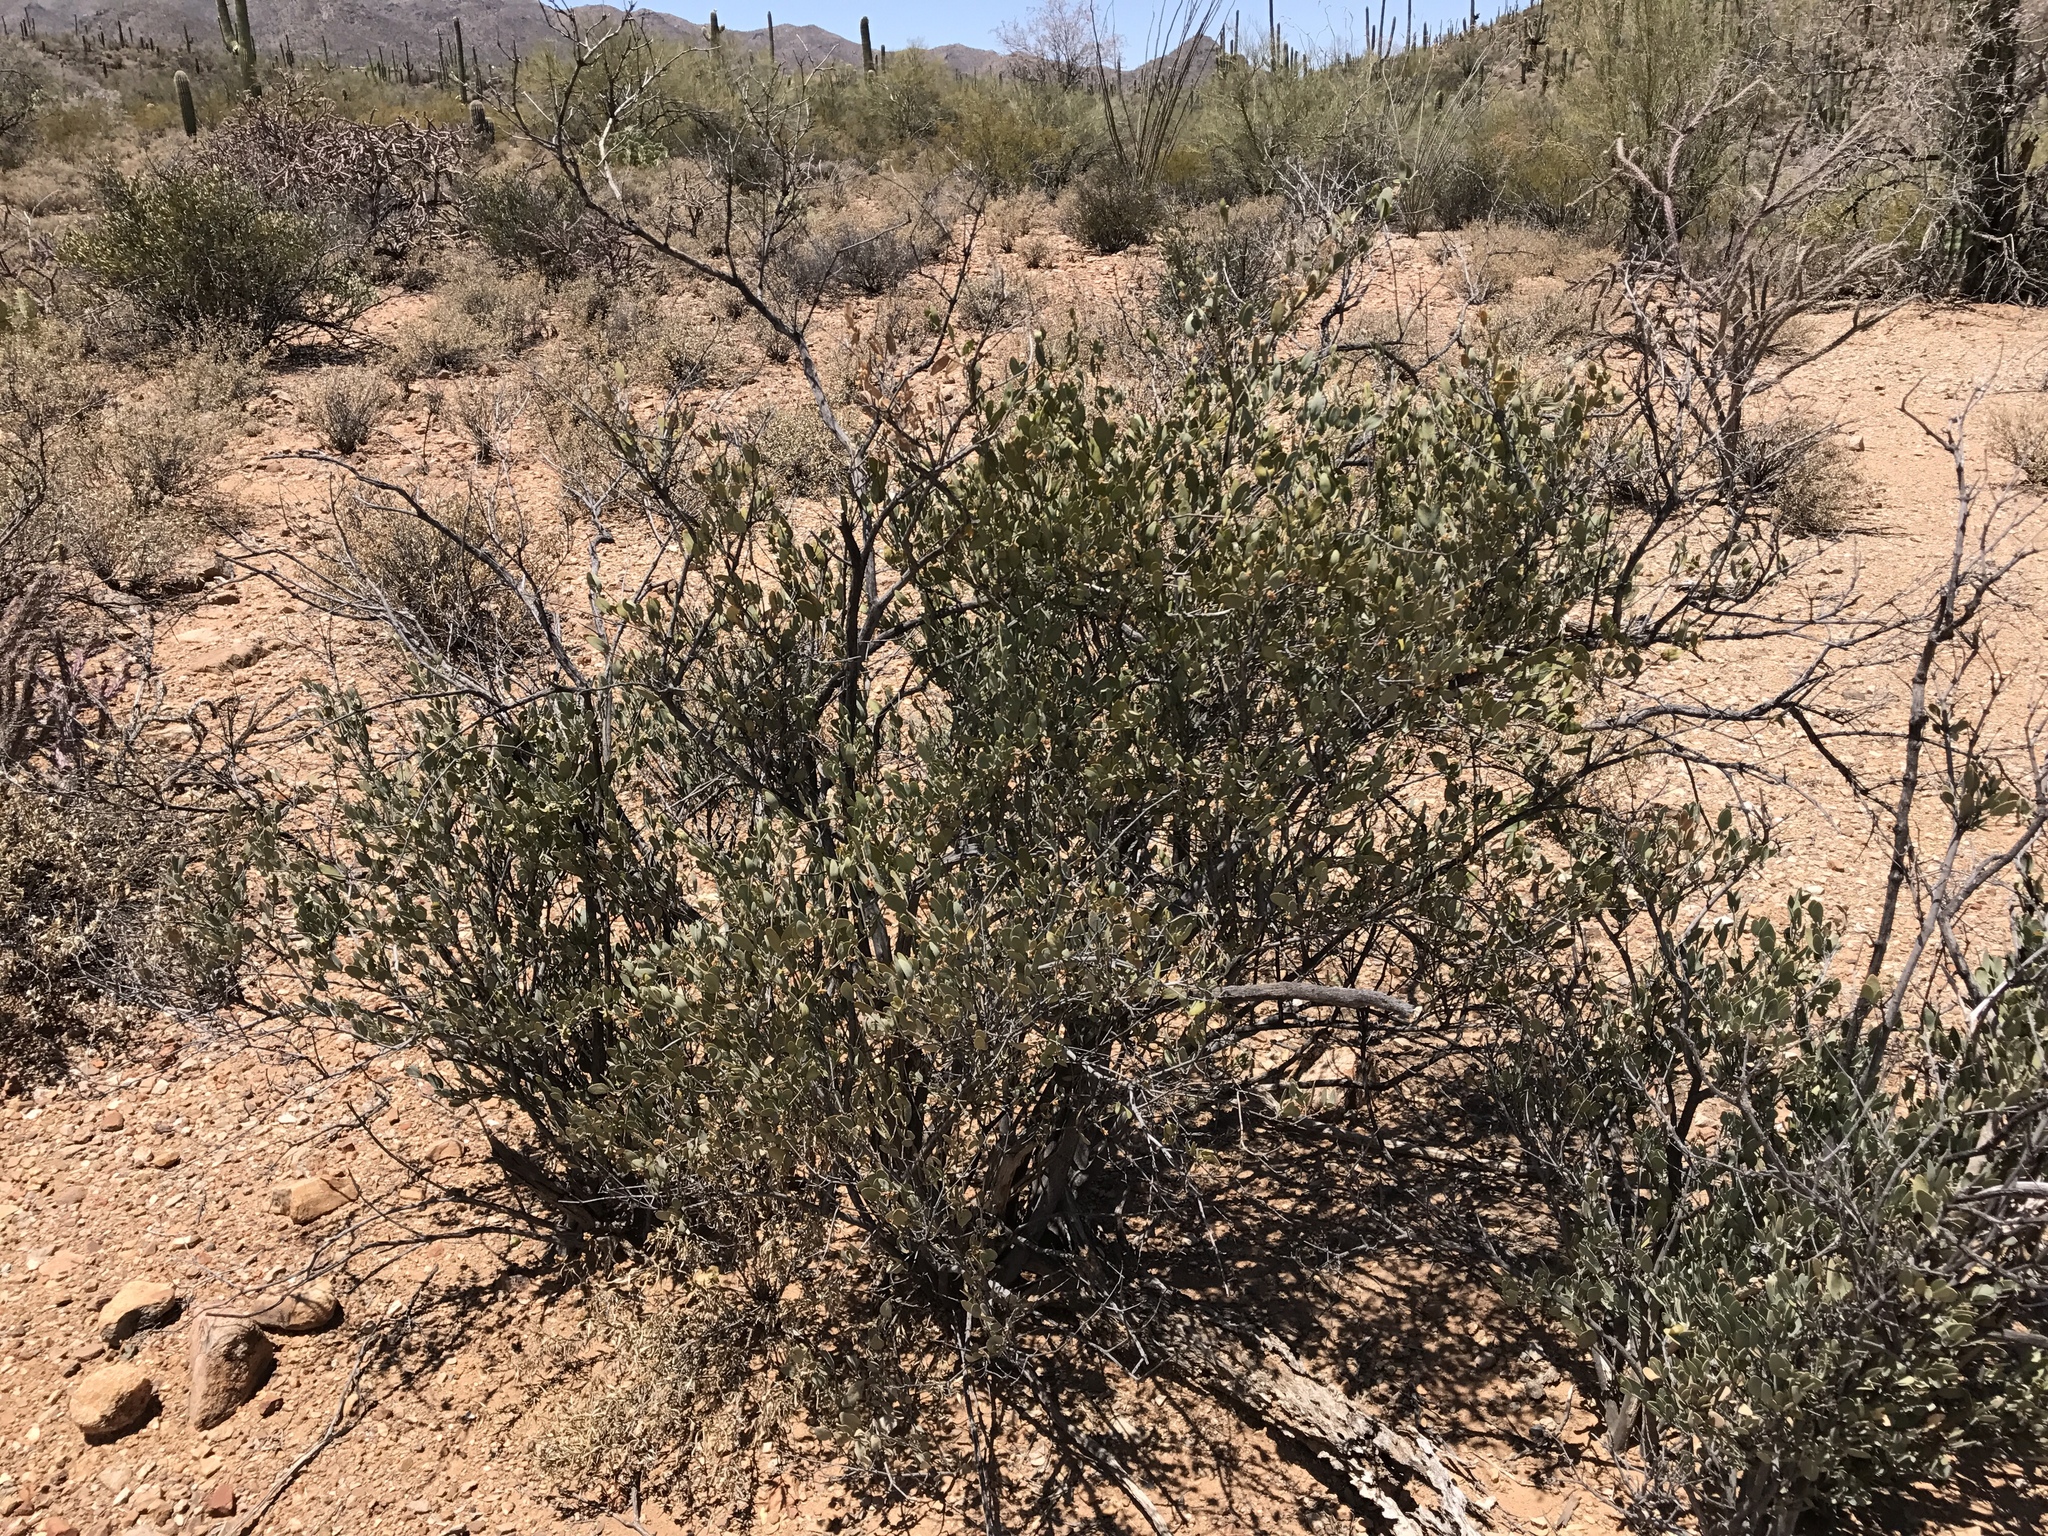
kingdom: Plantae
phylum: Tracheophyta
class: Magnoliopsida
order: Caryophyllales
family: Simmondsiaceae
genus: Simmondsia
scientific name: Simmondsia chinensis
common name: Jojoba
